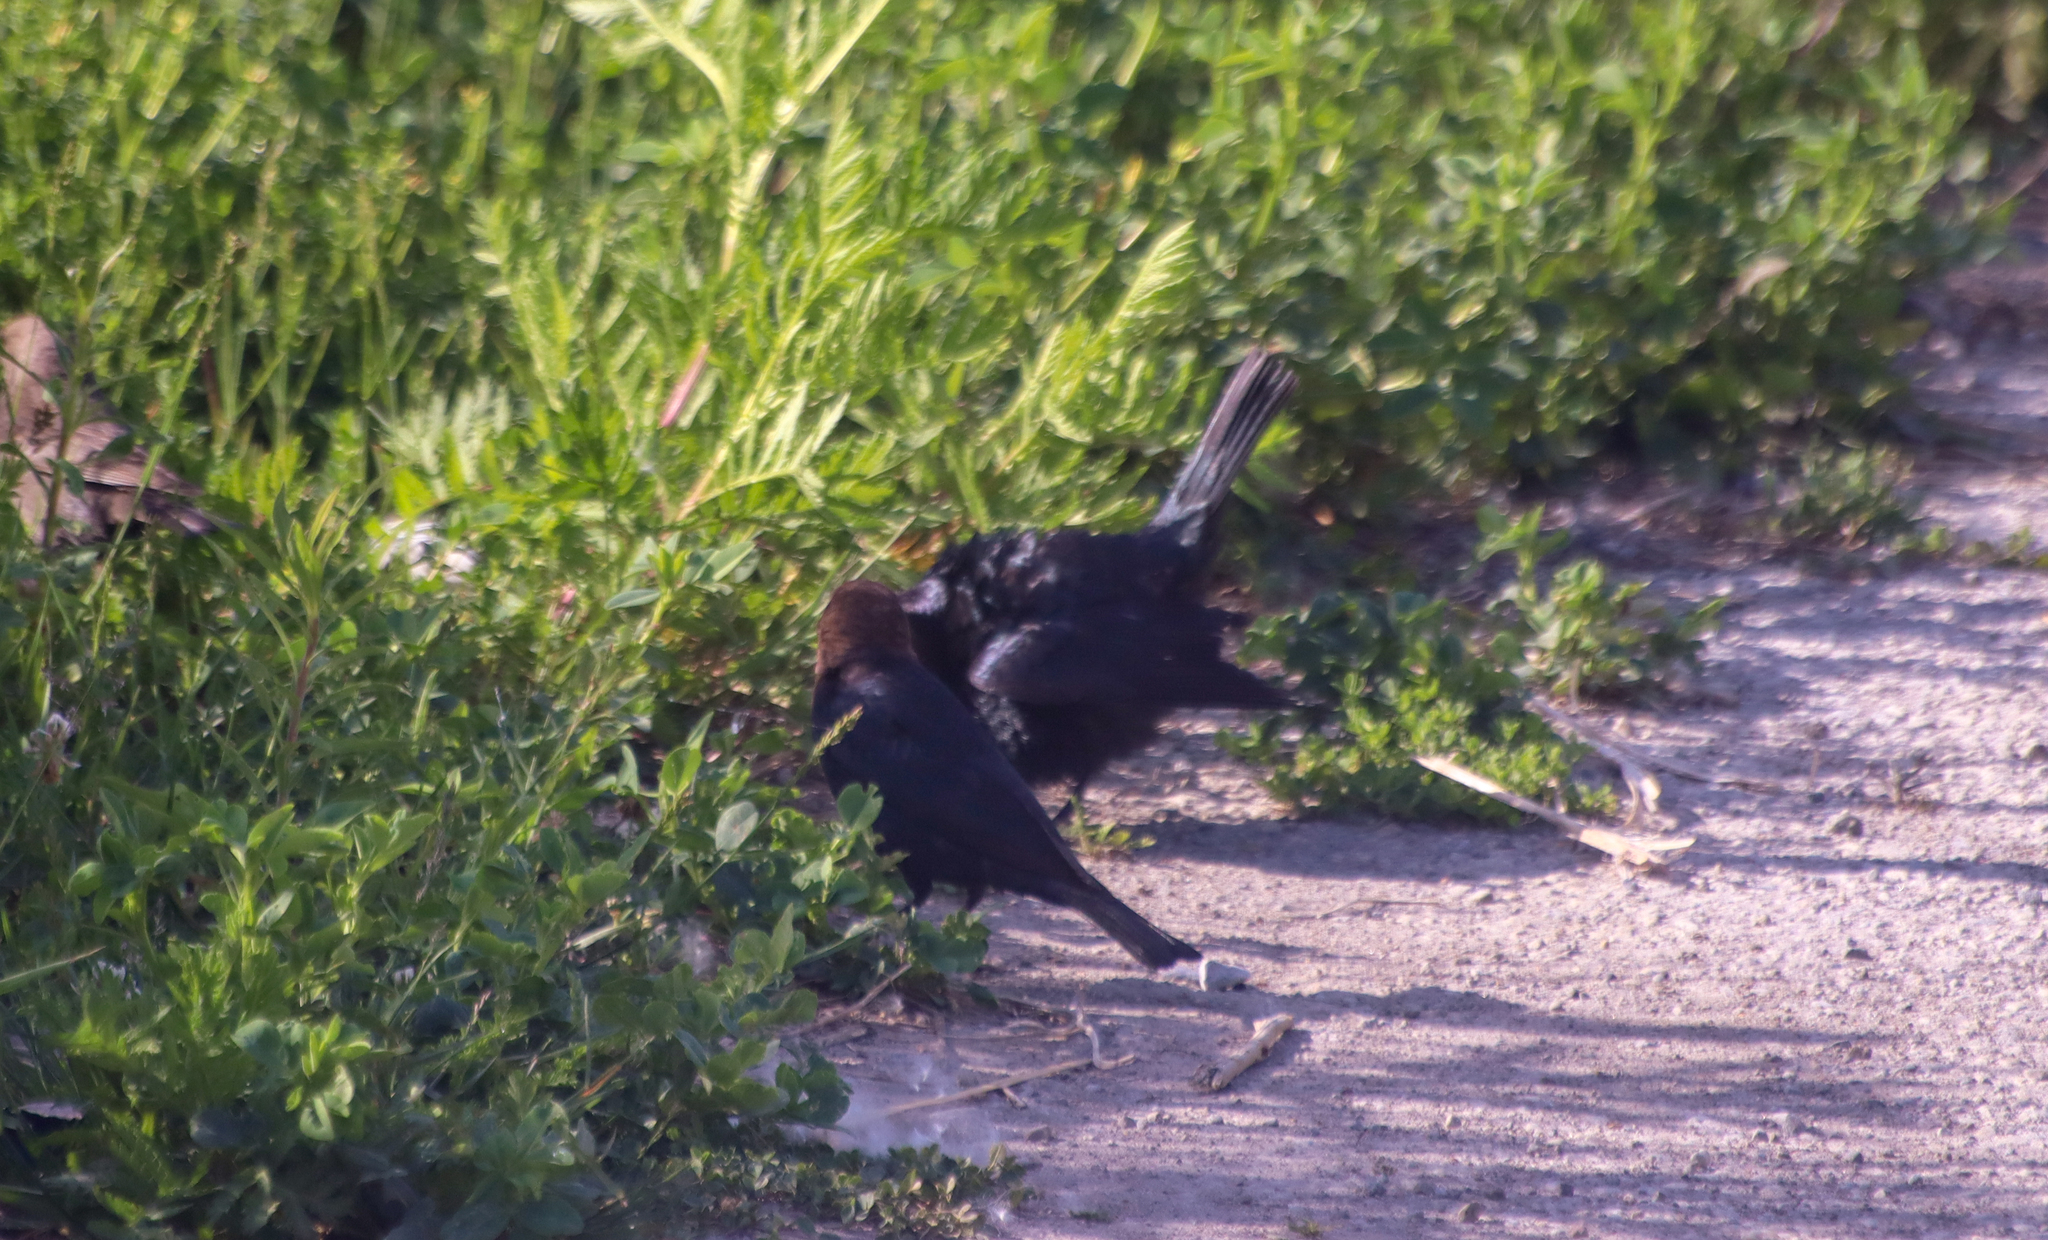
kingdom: Animalia
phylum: Chordata
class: Aves
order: Passeriformes
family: Icteridae
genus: Molothrus
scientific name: Molothrus ater
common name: Brown-headed cowbird
